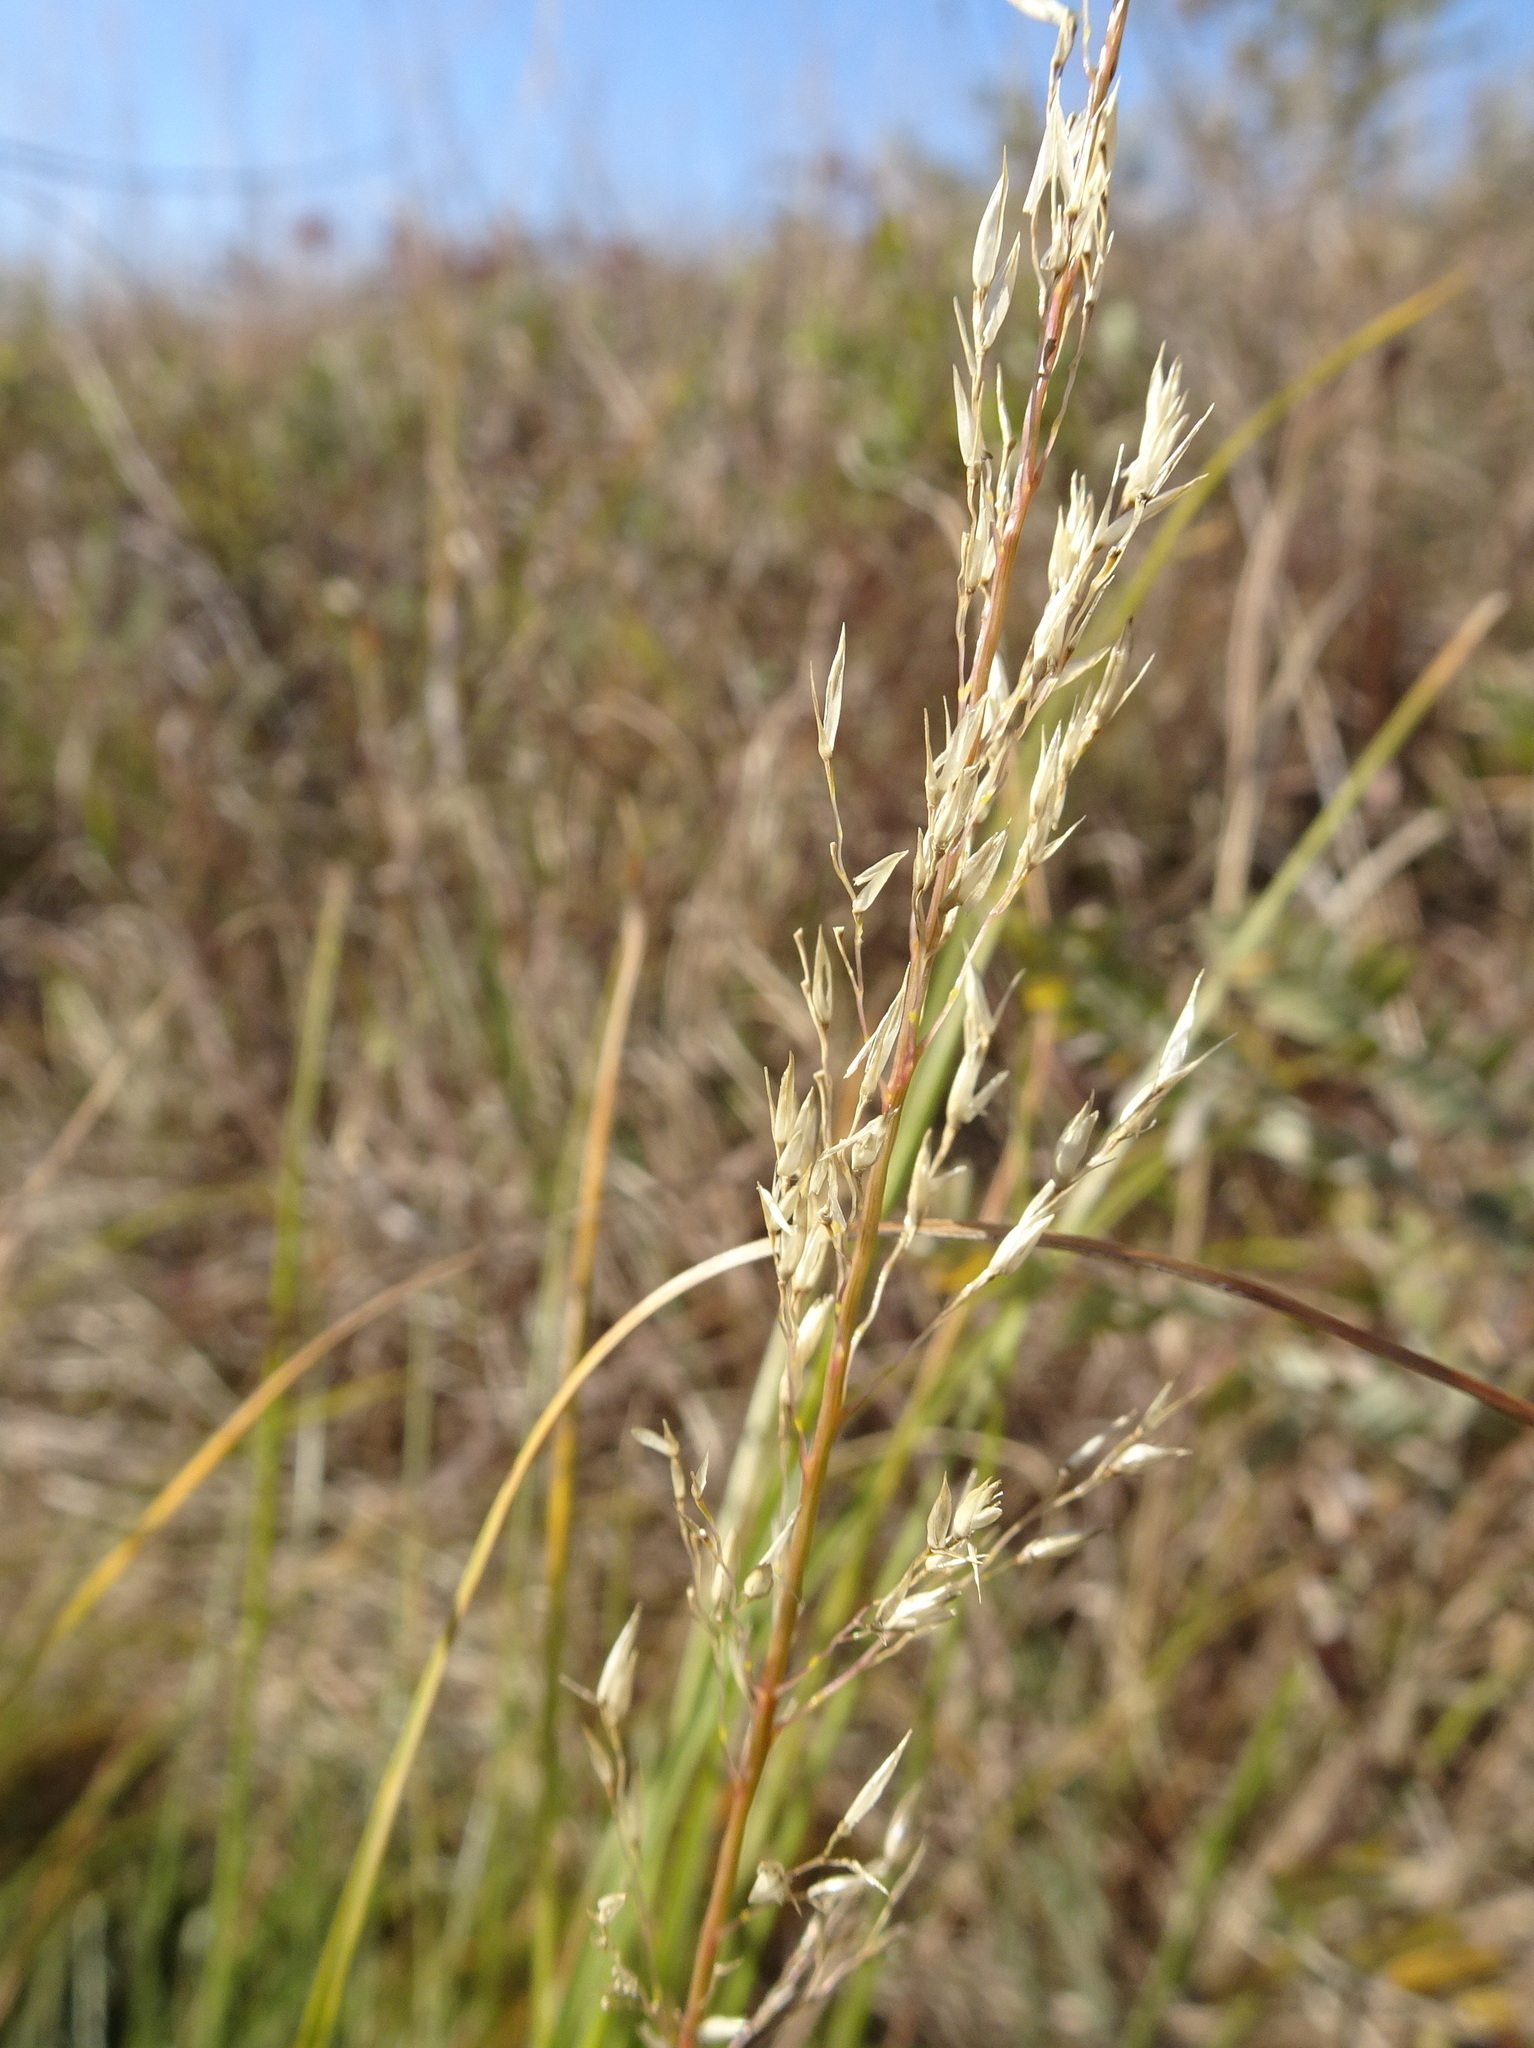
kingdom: Plantae
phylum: Tracheophyta
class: Liliopsida
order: Poales
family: Poaceae
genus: Sporobolus
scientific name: Sporobolus heterolepis
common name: Prairie dropseed
